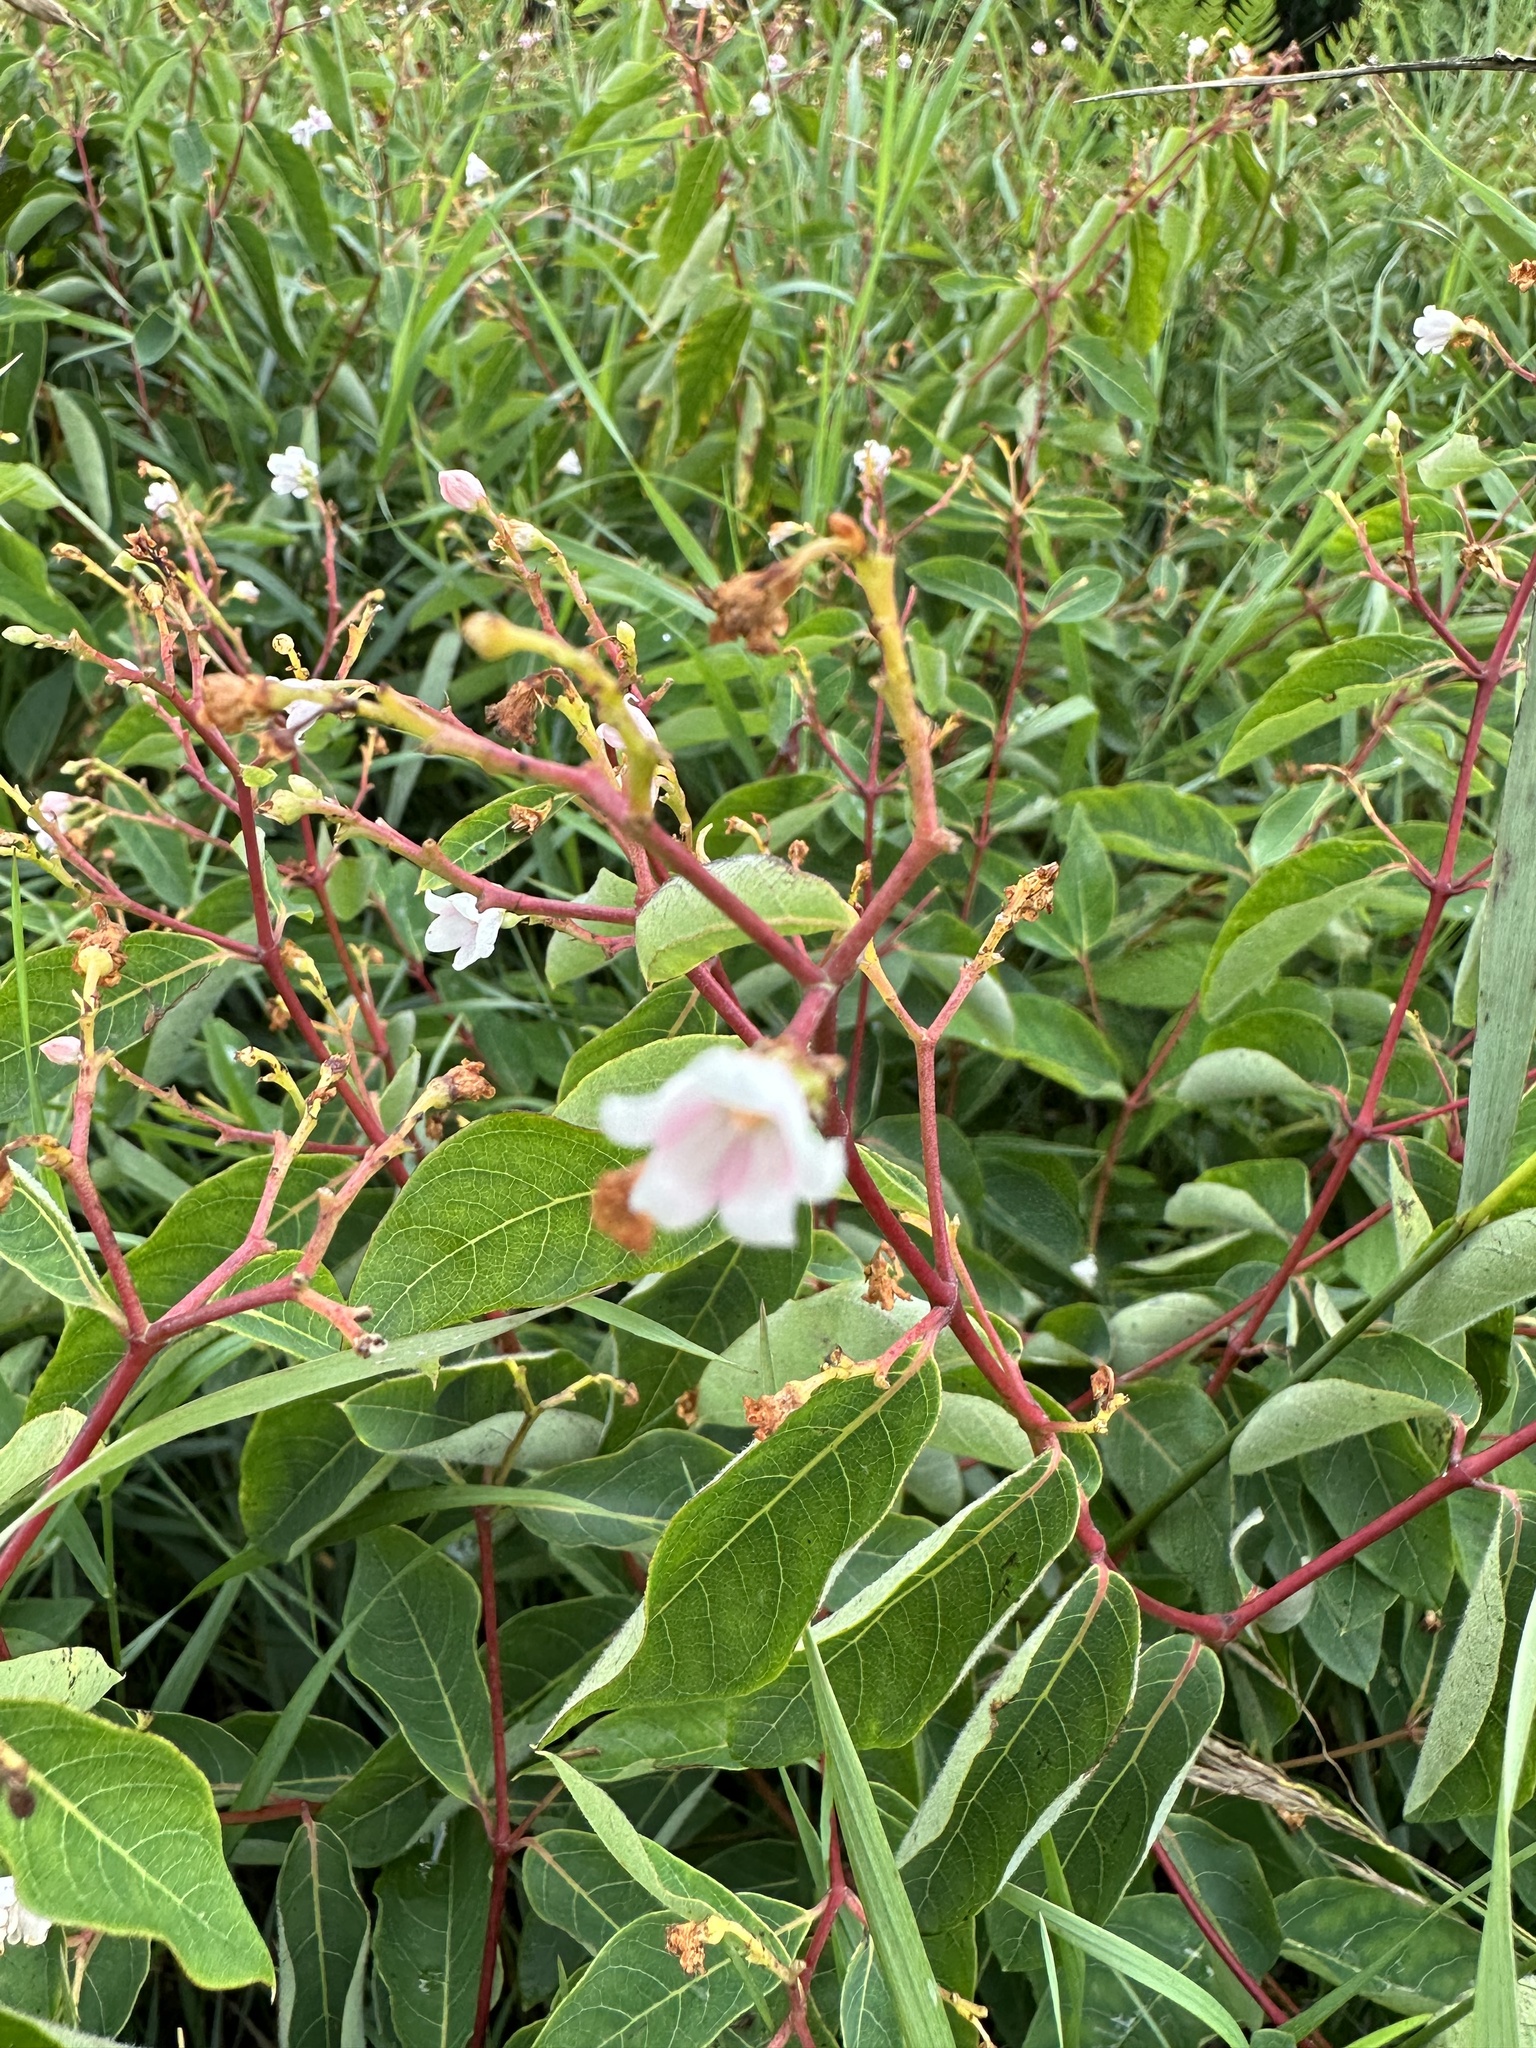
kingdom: Plantae
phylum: Tracheophyta
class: Magnoliopsida
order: Gentianales
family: Apocynaceae
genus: Apocynum
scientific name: Apocynum androsaemifolium
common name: Spreading dogbane
